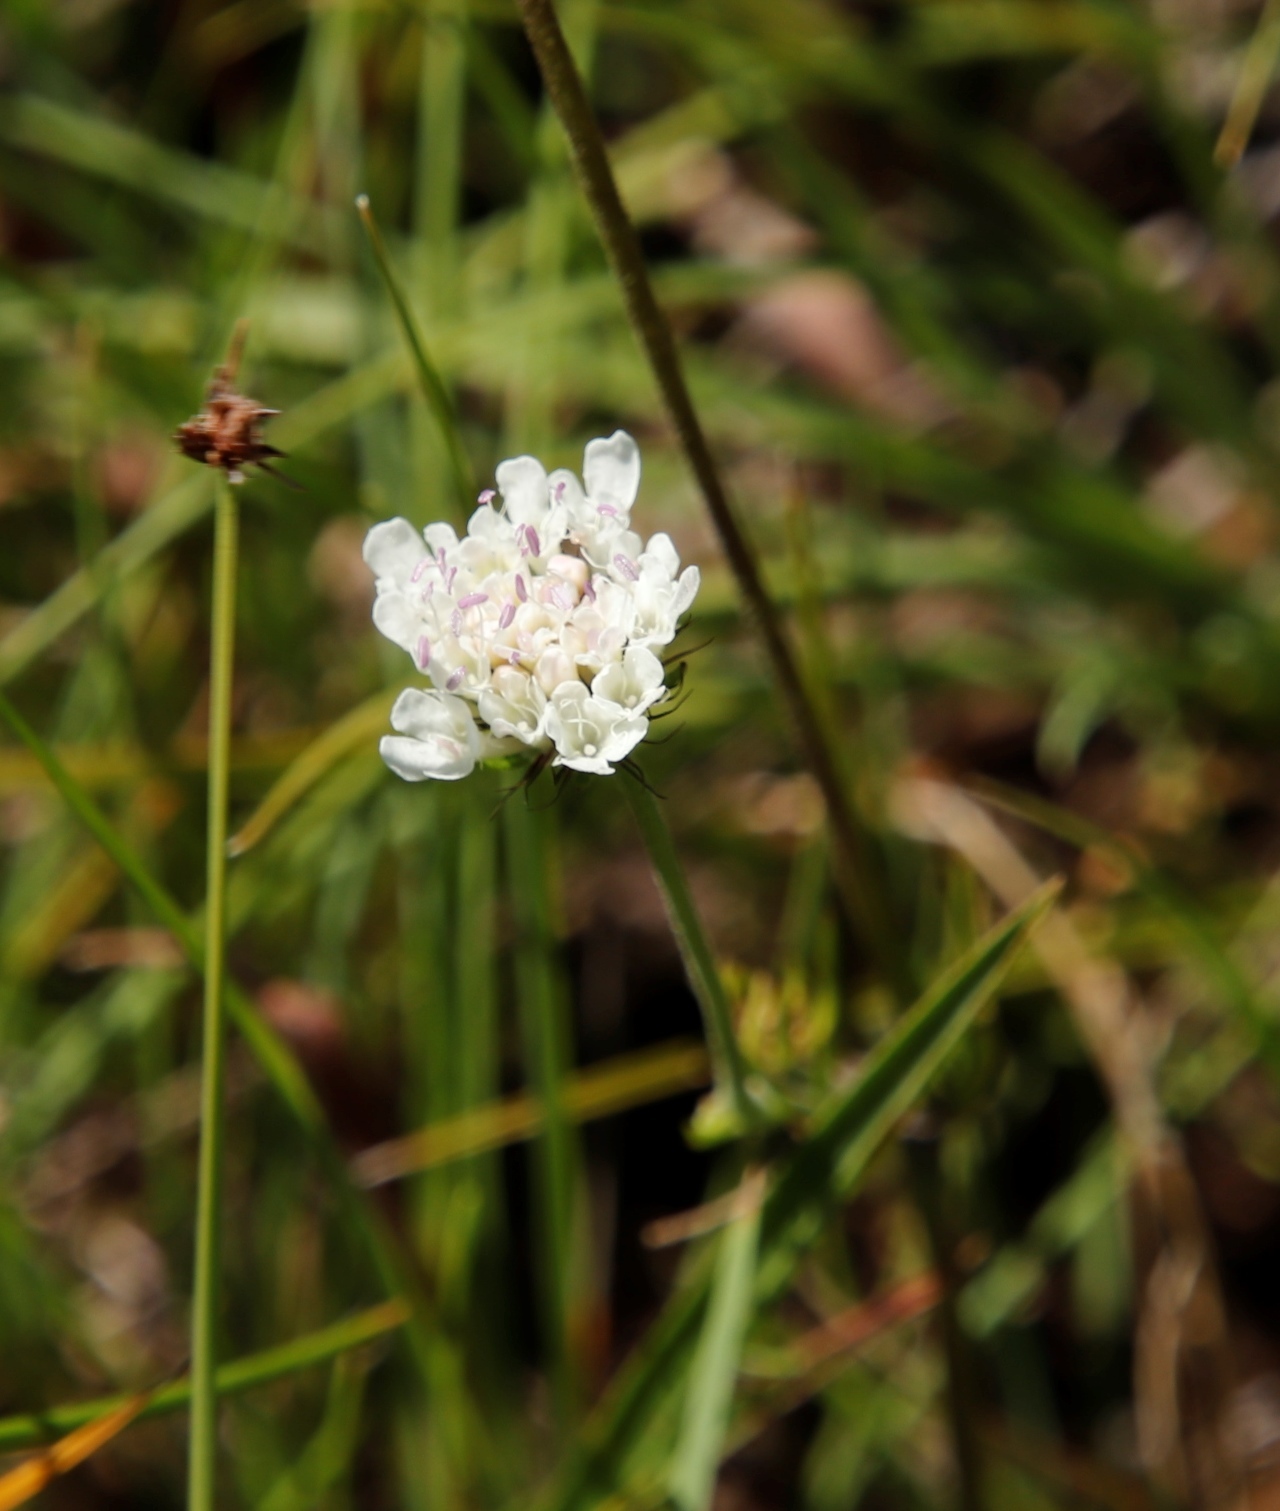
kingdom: Plantae
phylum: Tracheophyta
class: Magnoliopsida
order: Dipsacales
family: Caprifoliaceae
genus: Scabiosa
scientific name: Scabiosa columbaria
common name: Small scabious
